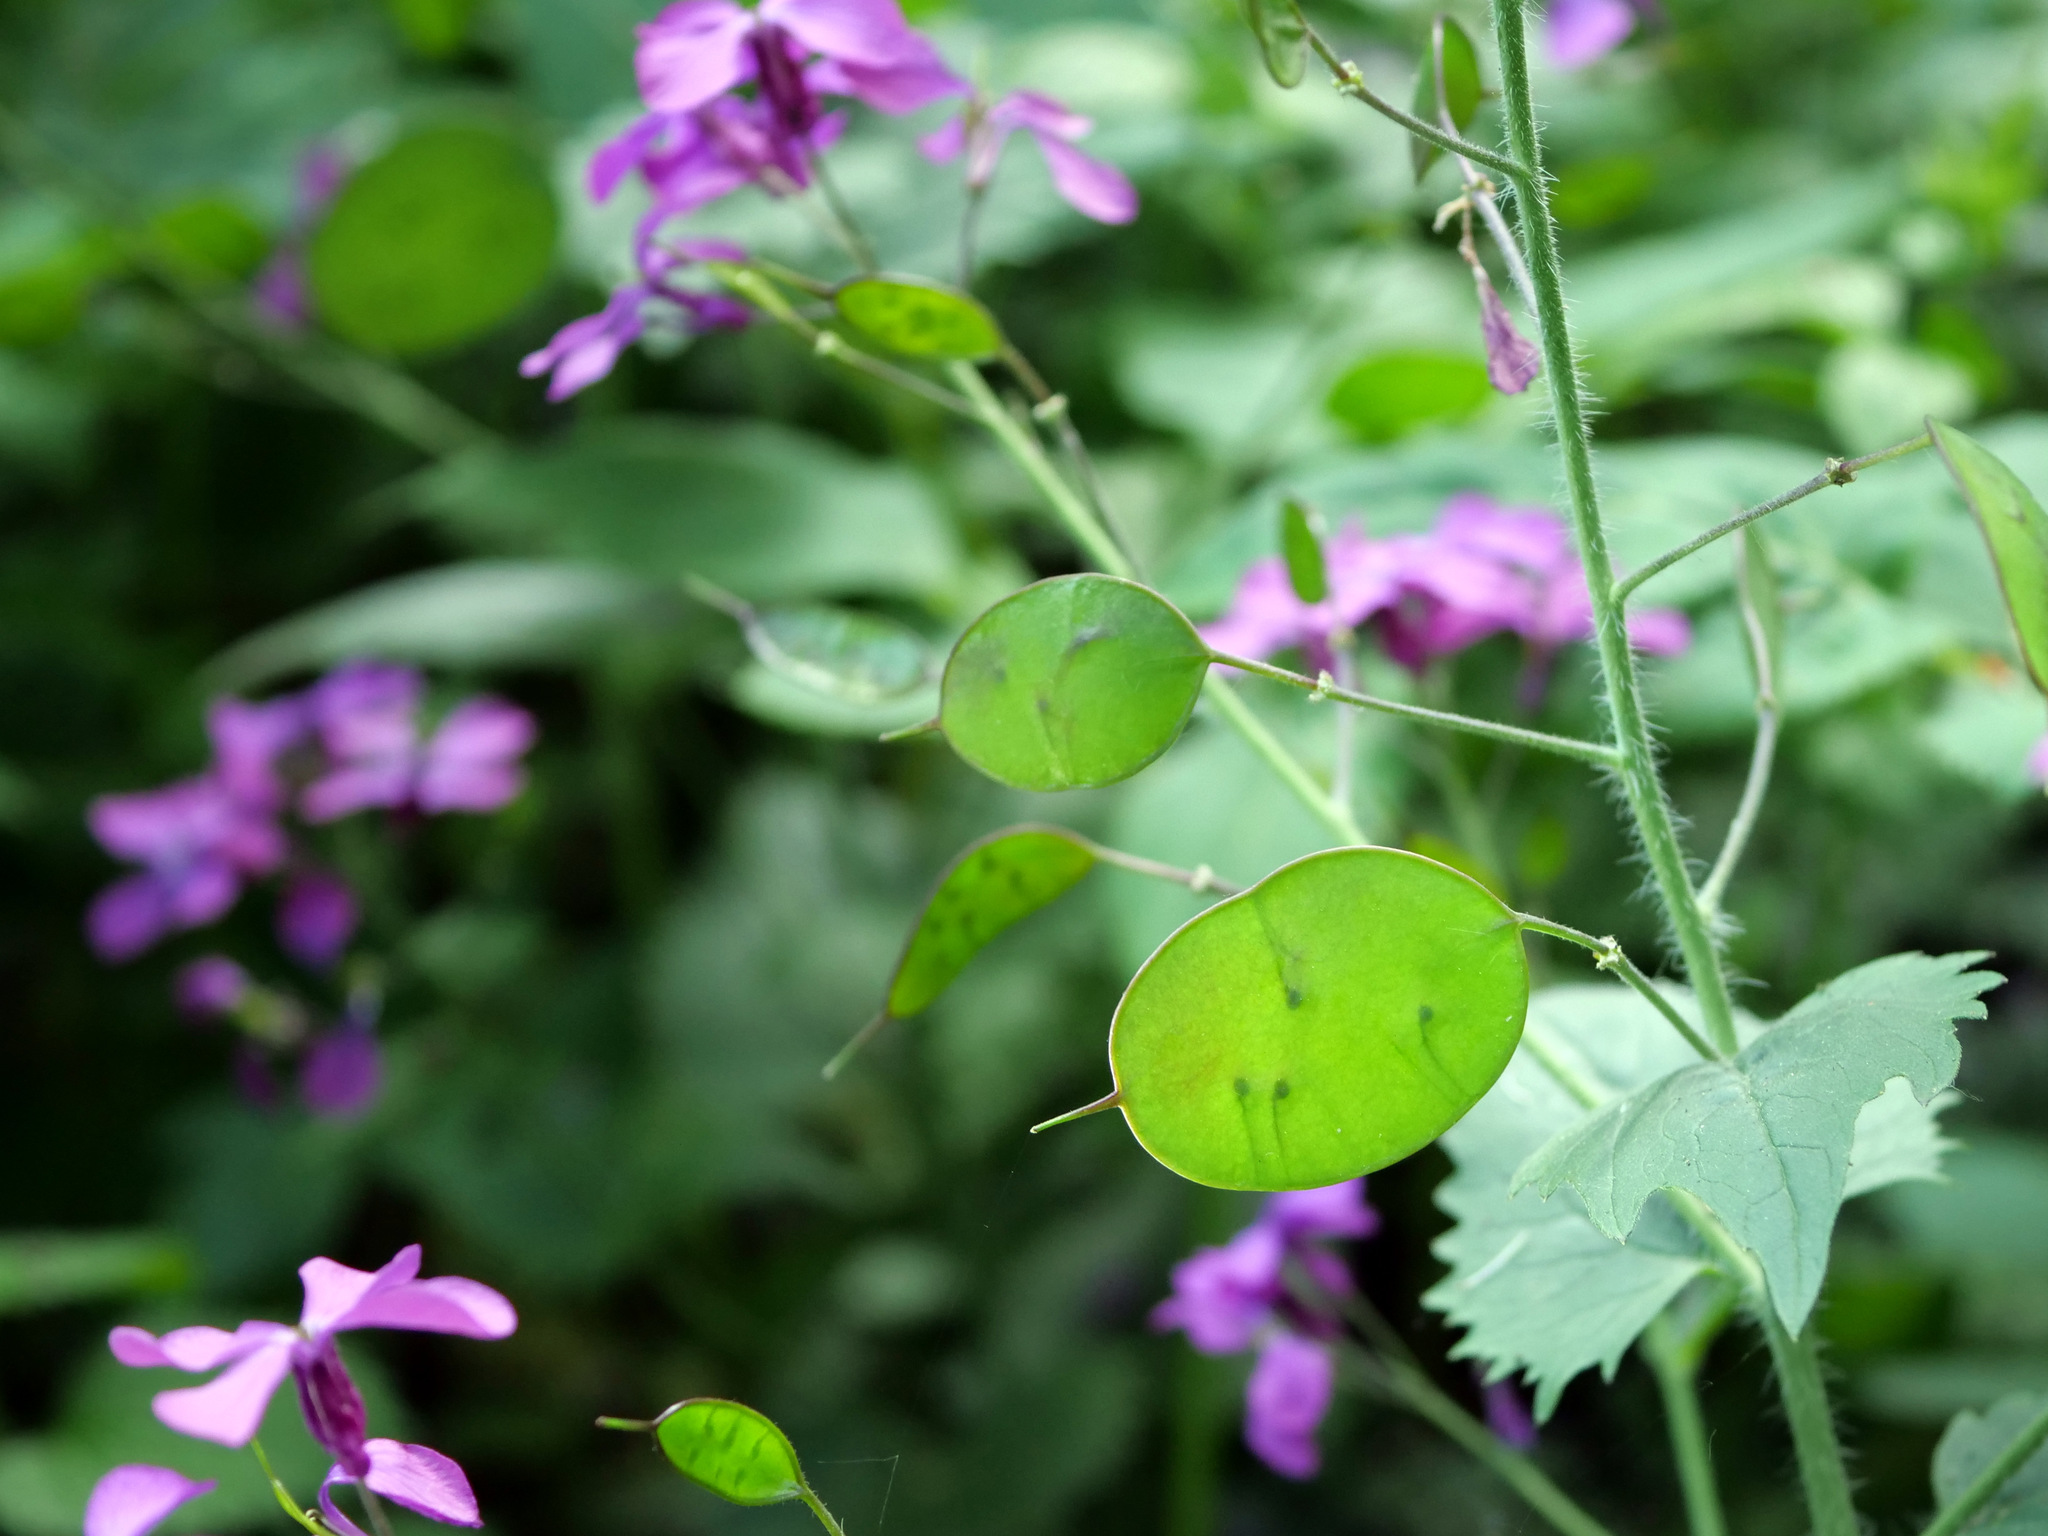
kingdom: Plantae
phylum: Tracheophyta
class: Magnoliopsida
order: Brassicales
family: Brassicaceae
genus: Lunaria
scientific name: Lunaria annua
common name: Honesty
